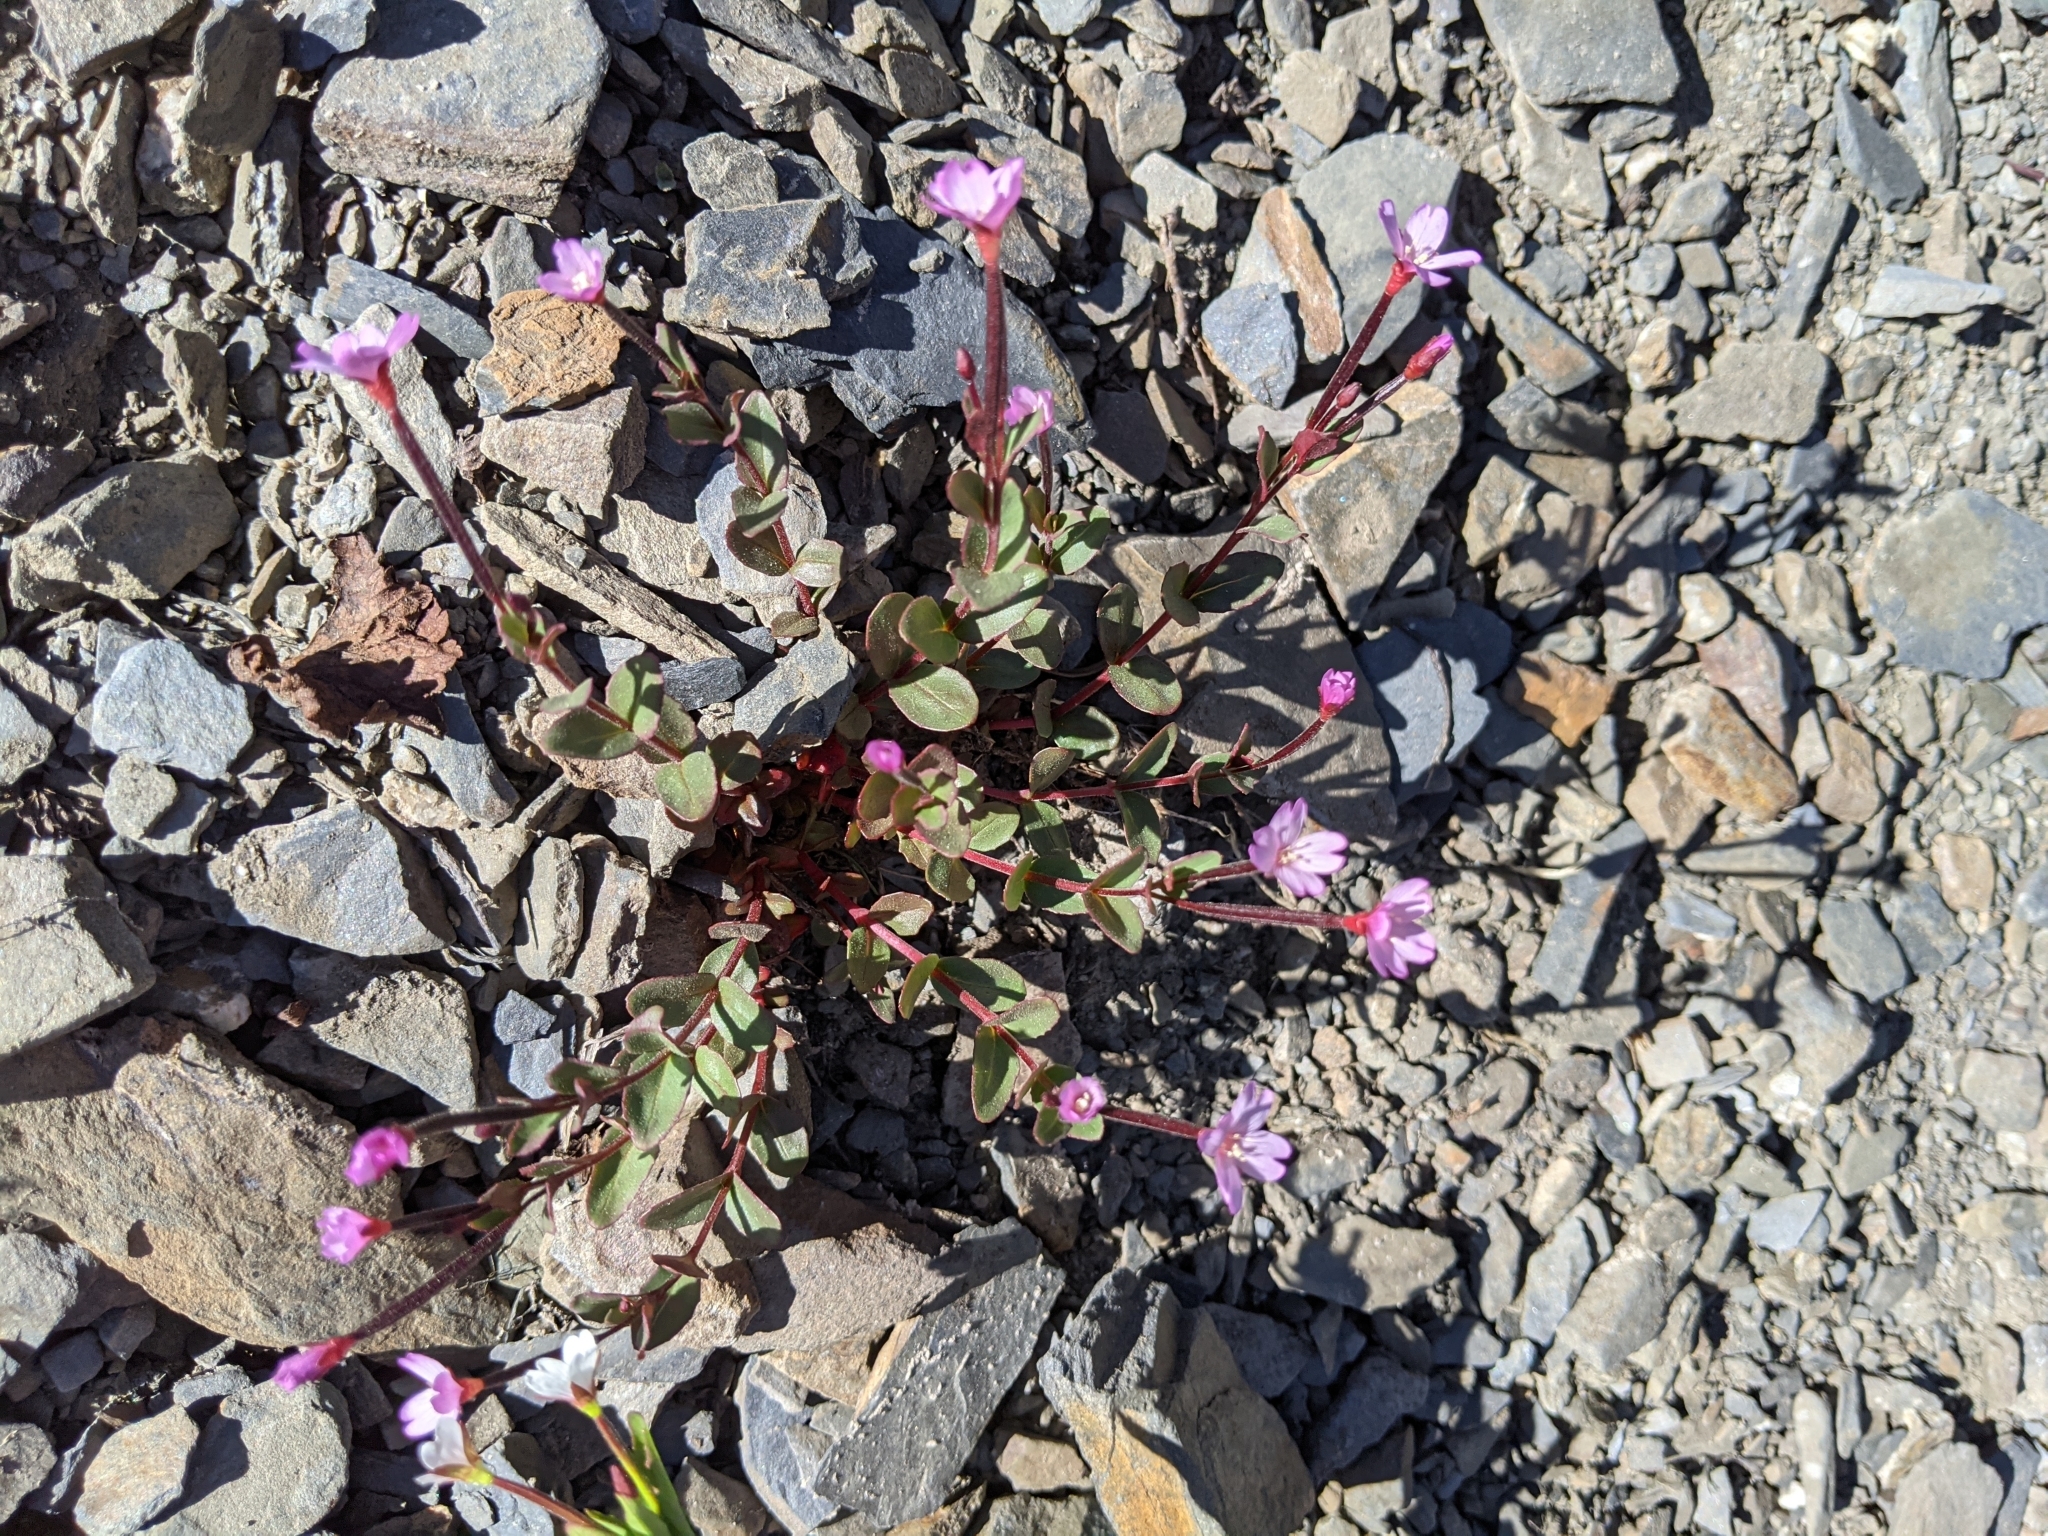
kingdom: Plantae
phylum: Tracheophyta
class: Magnoliopsida
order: Myrtales
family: Onagraceae
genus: Epilobium
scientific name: Epilobium clavatum
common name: Clavate-fruit willowherb
